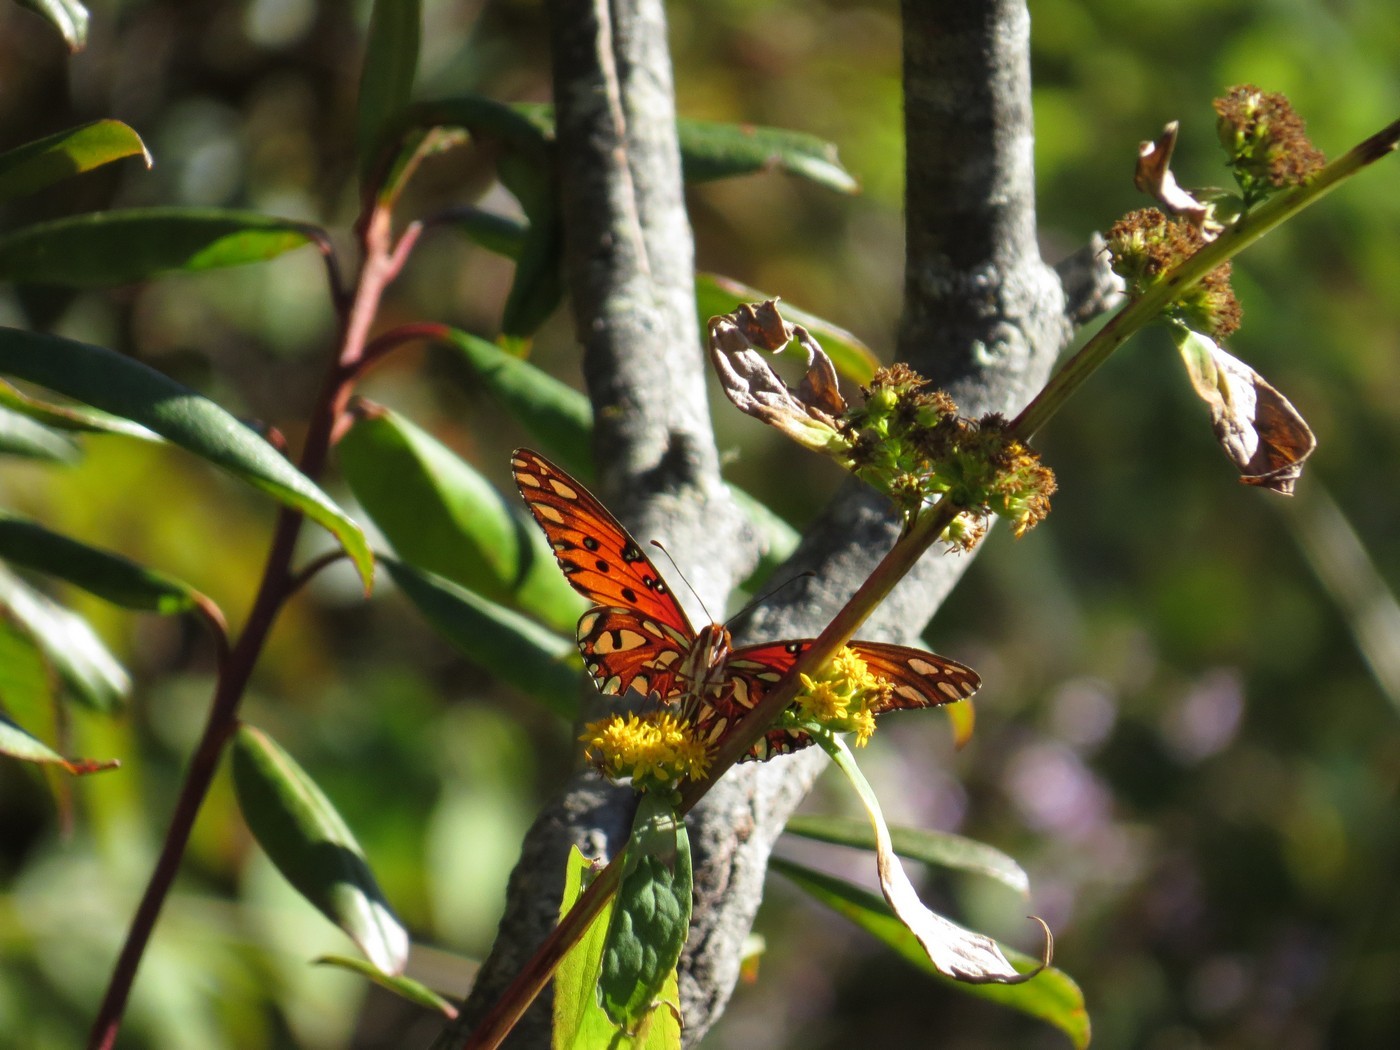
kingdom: Animalia
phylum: Arthropoda
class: Insecta
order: Lepidoptera
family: Nymphalidae
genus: Dione
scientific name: Dione vanillae
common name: Gulf fritillary
